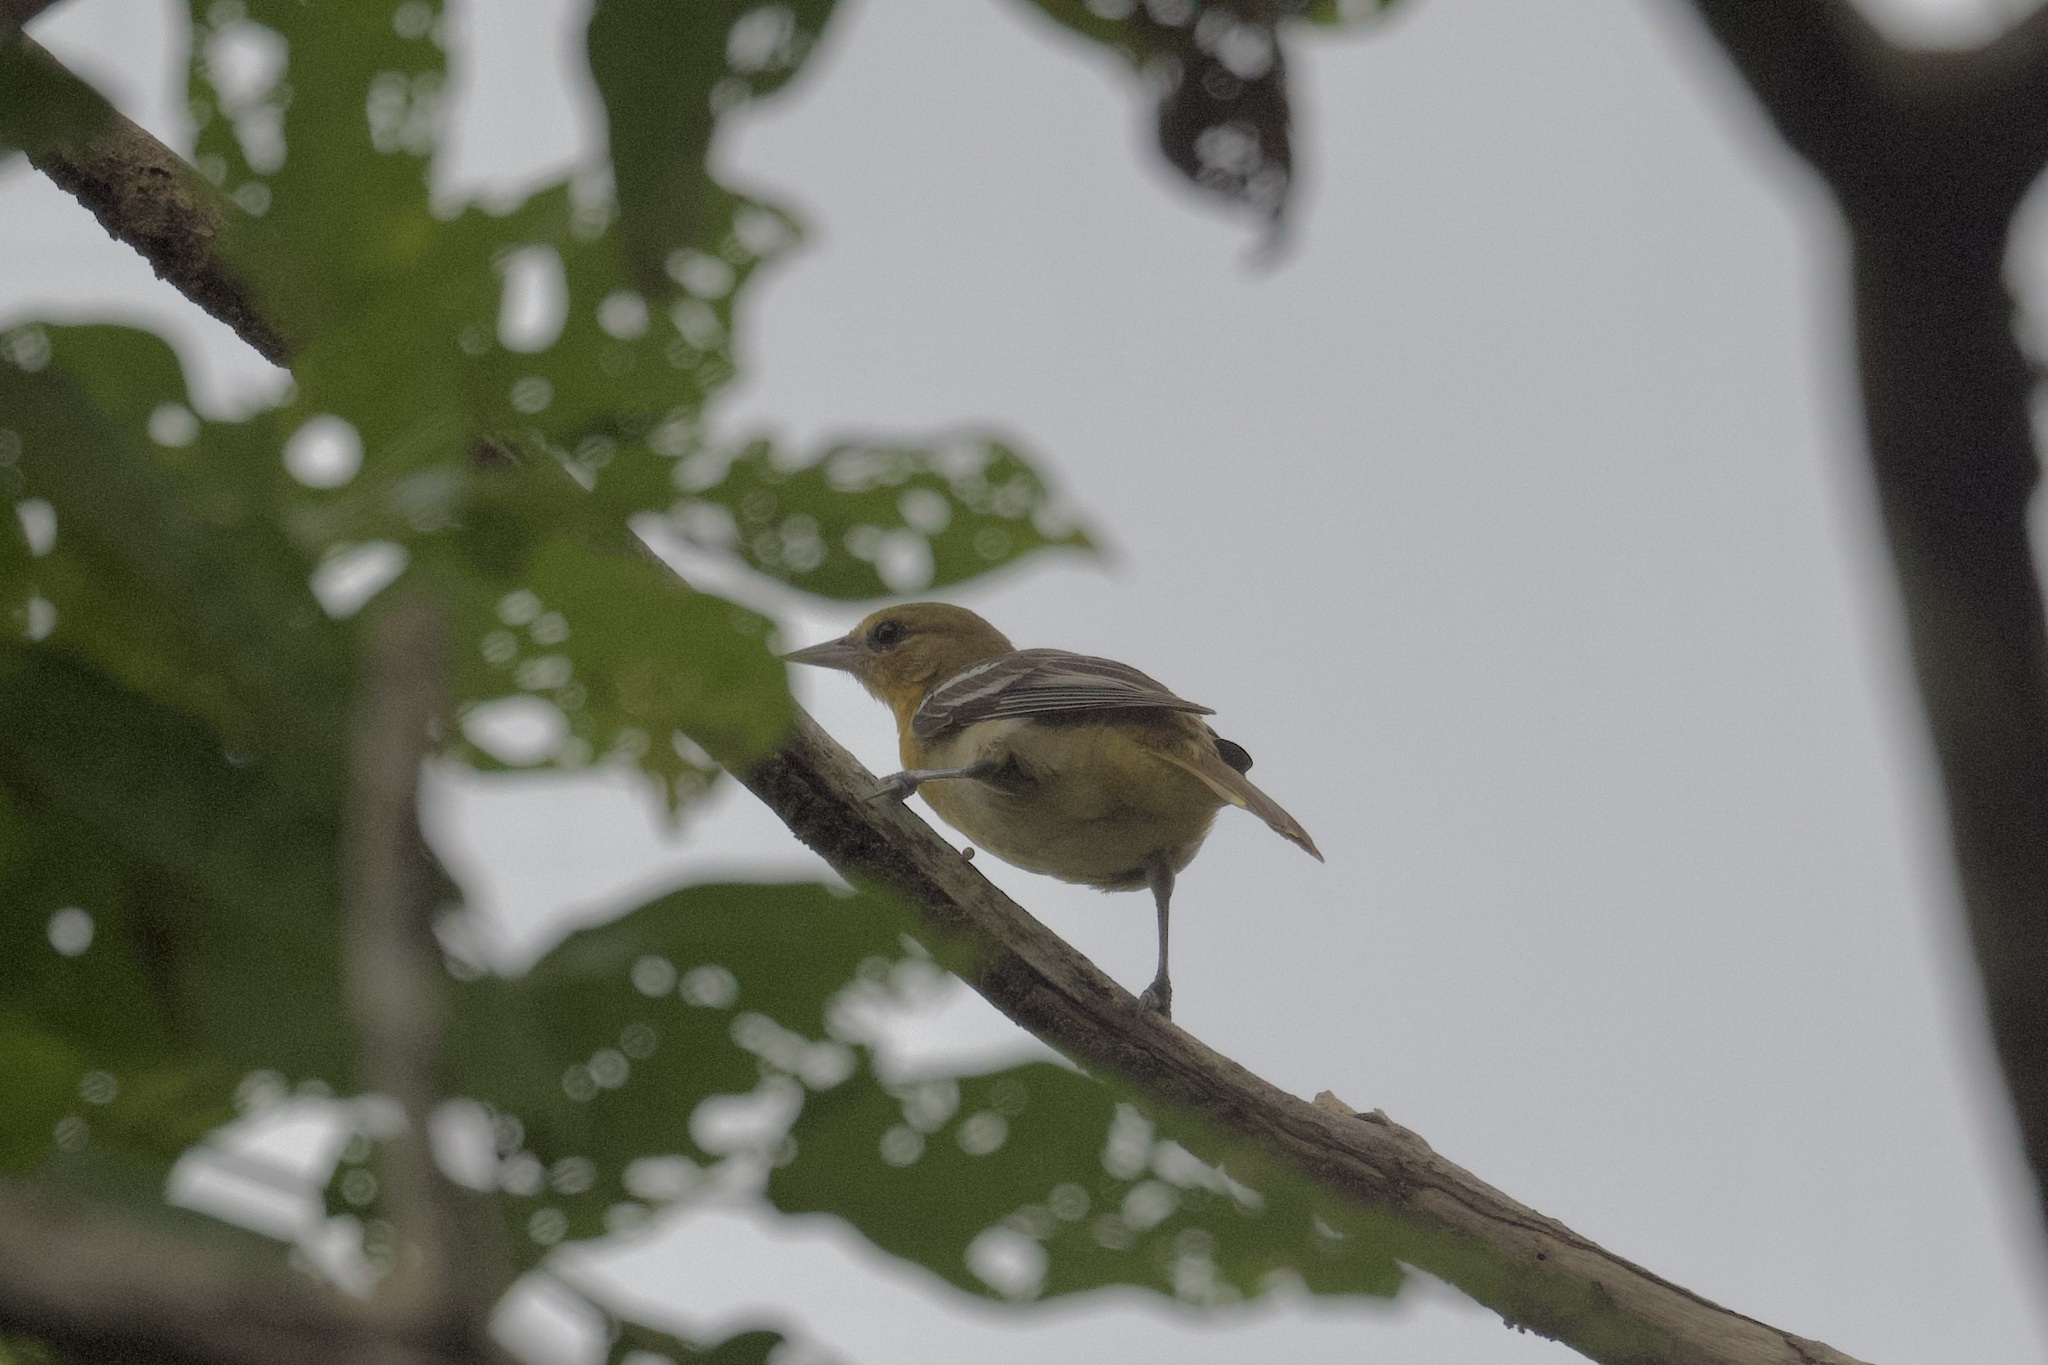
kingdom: Animalia
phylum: Chordata
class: Aves
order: Passeriformes
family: Icteridae
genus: Icterus
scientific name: Icterus galbula
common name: Baltimore oriole
